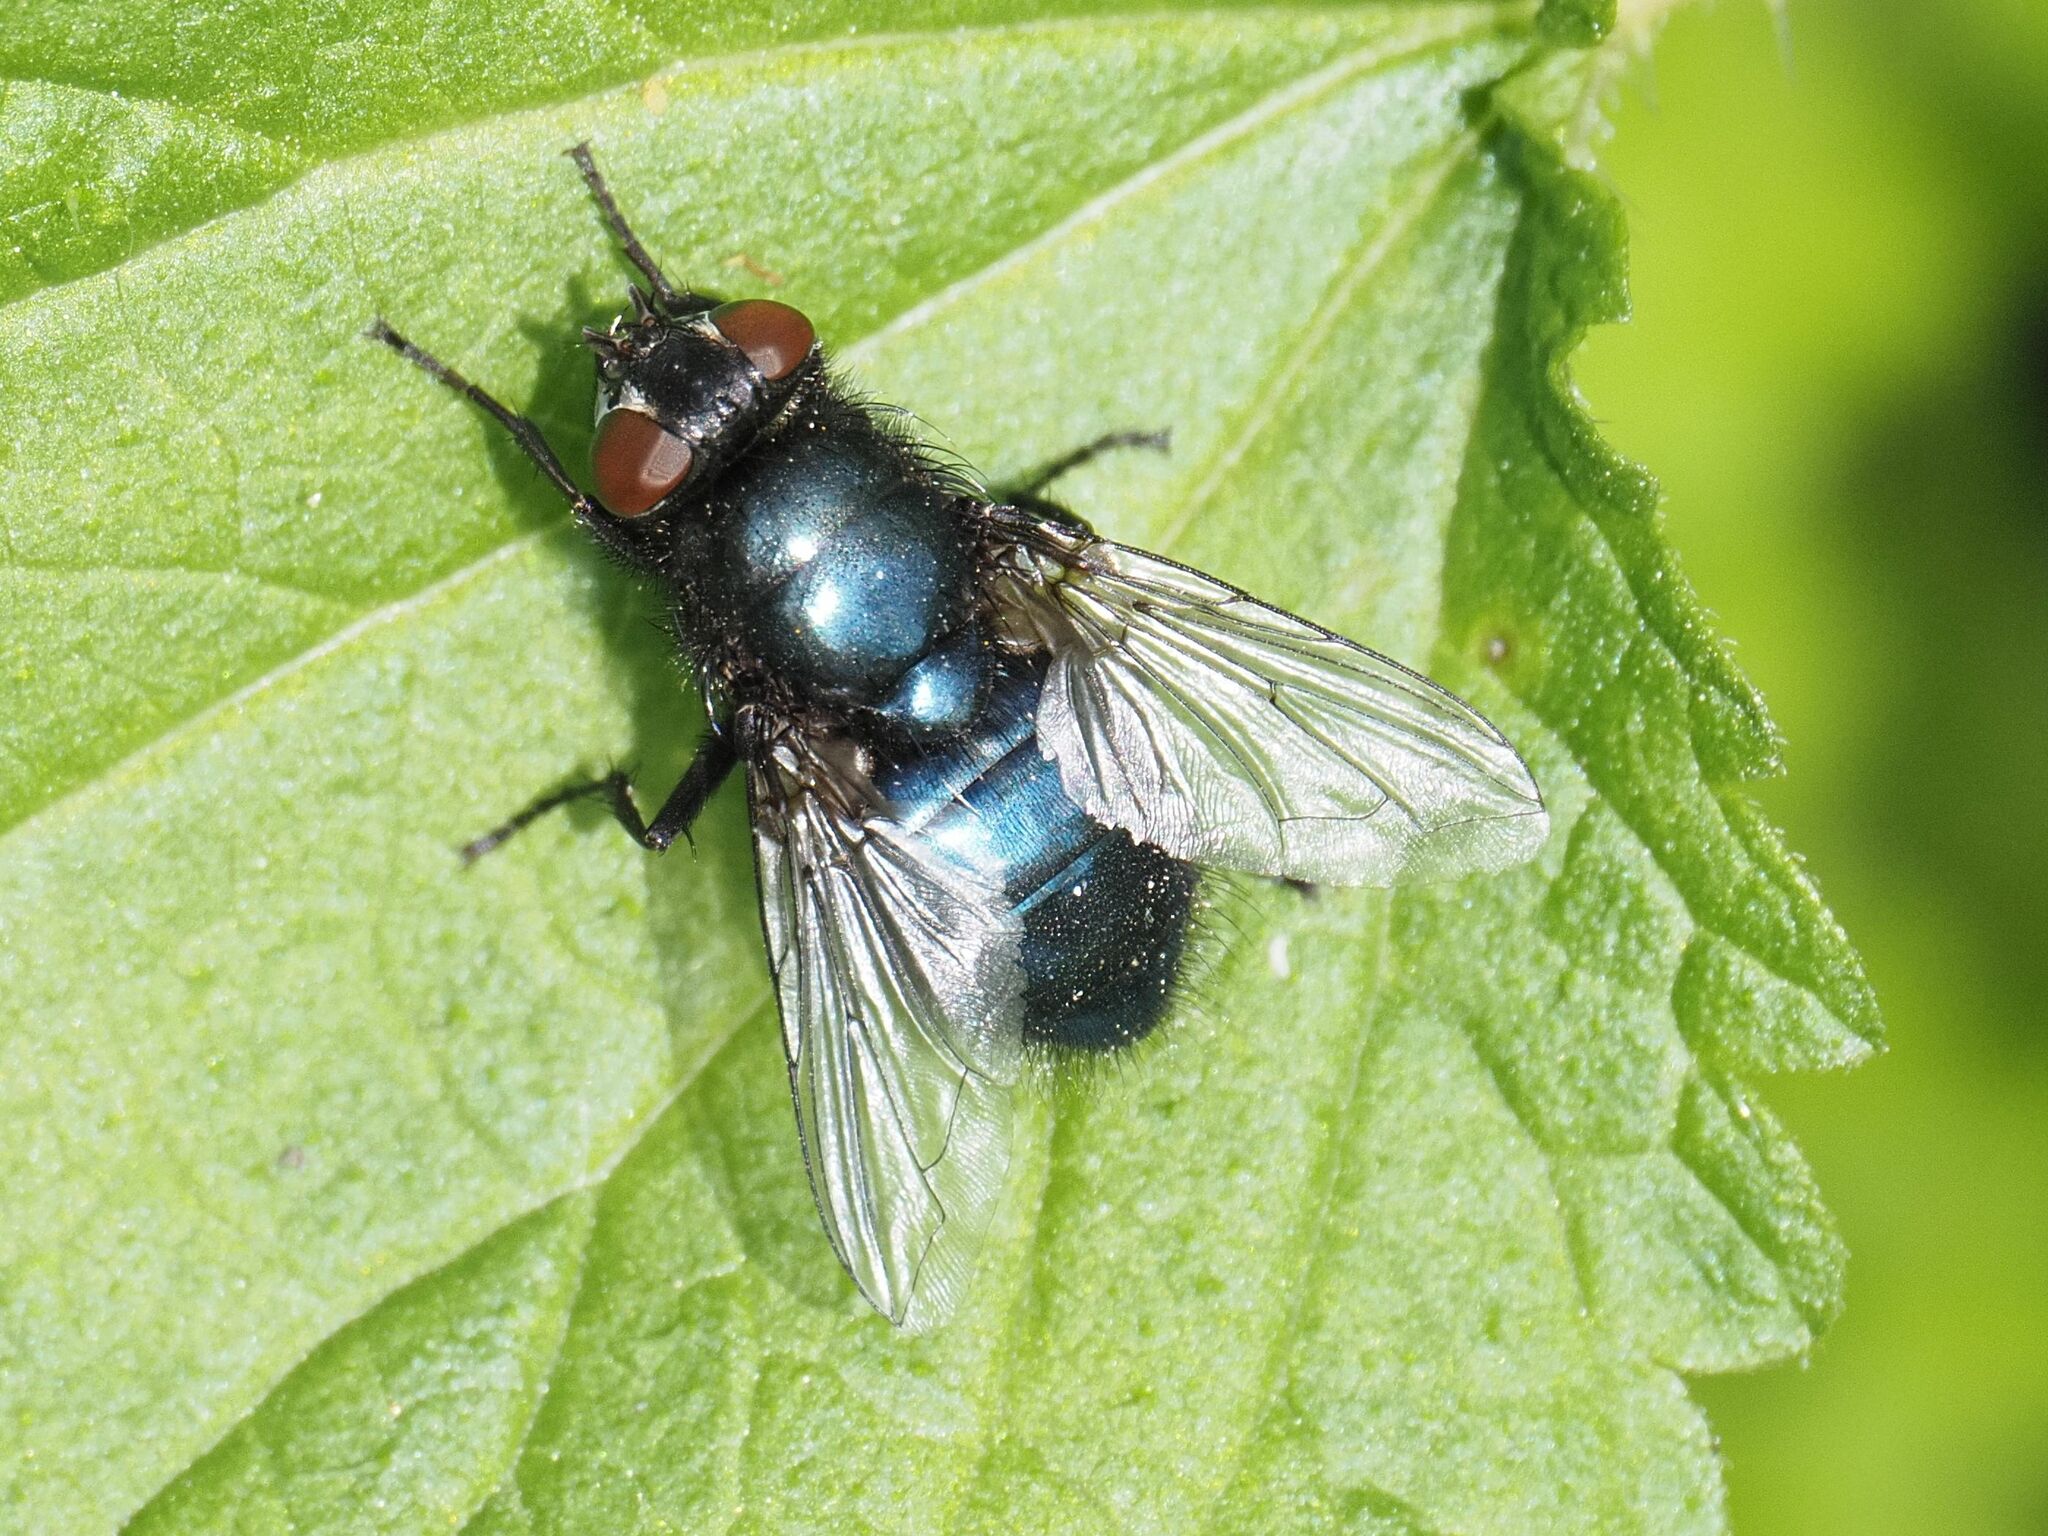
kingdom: Animalia
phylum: Arthropoda
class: Insecta
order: Diptera
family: Calliphoridae
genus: Protophormia
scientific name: Protophormia terraenovae
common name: Blackbottle
